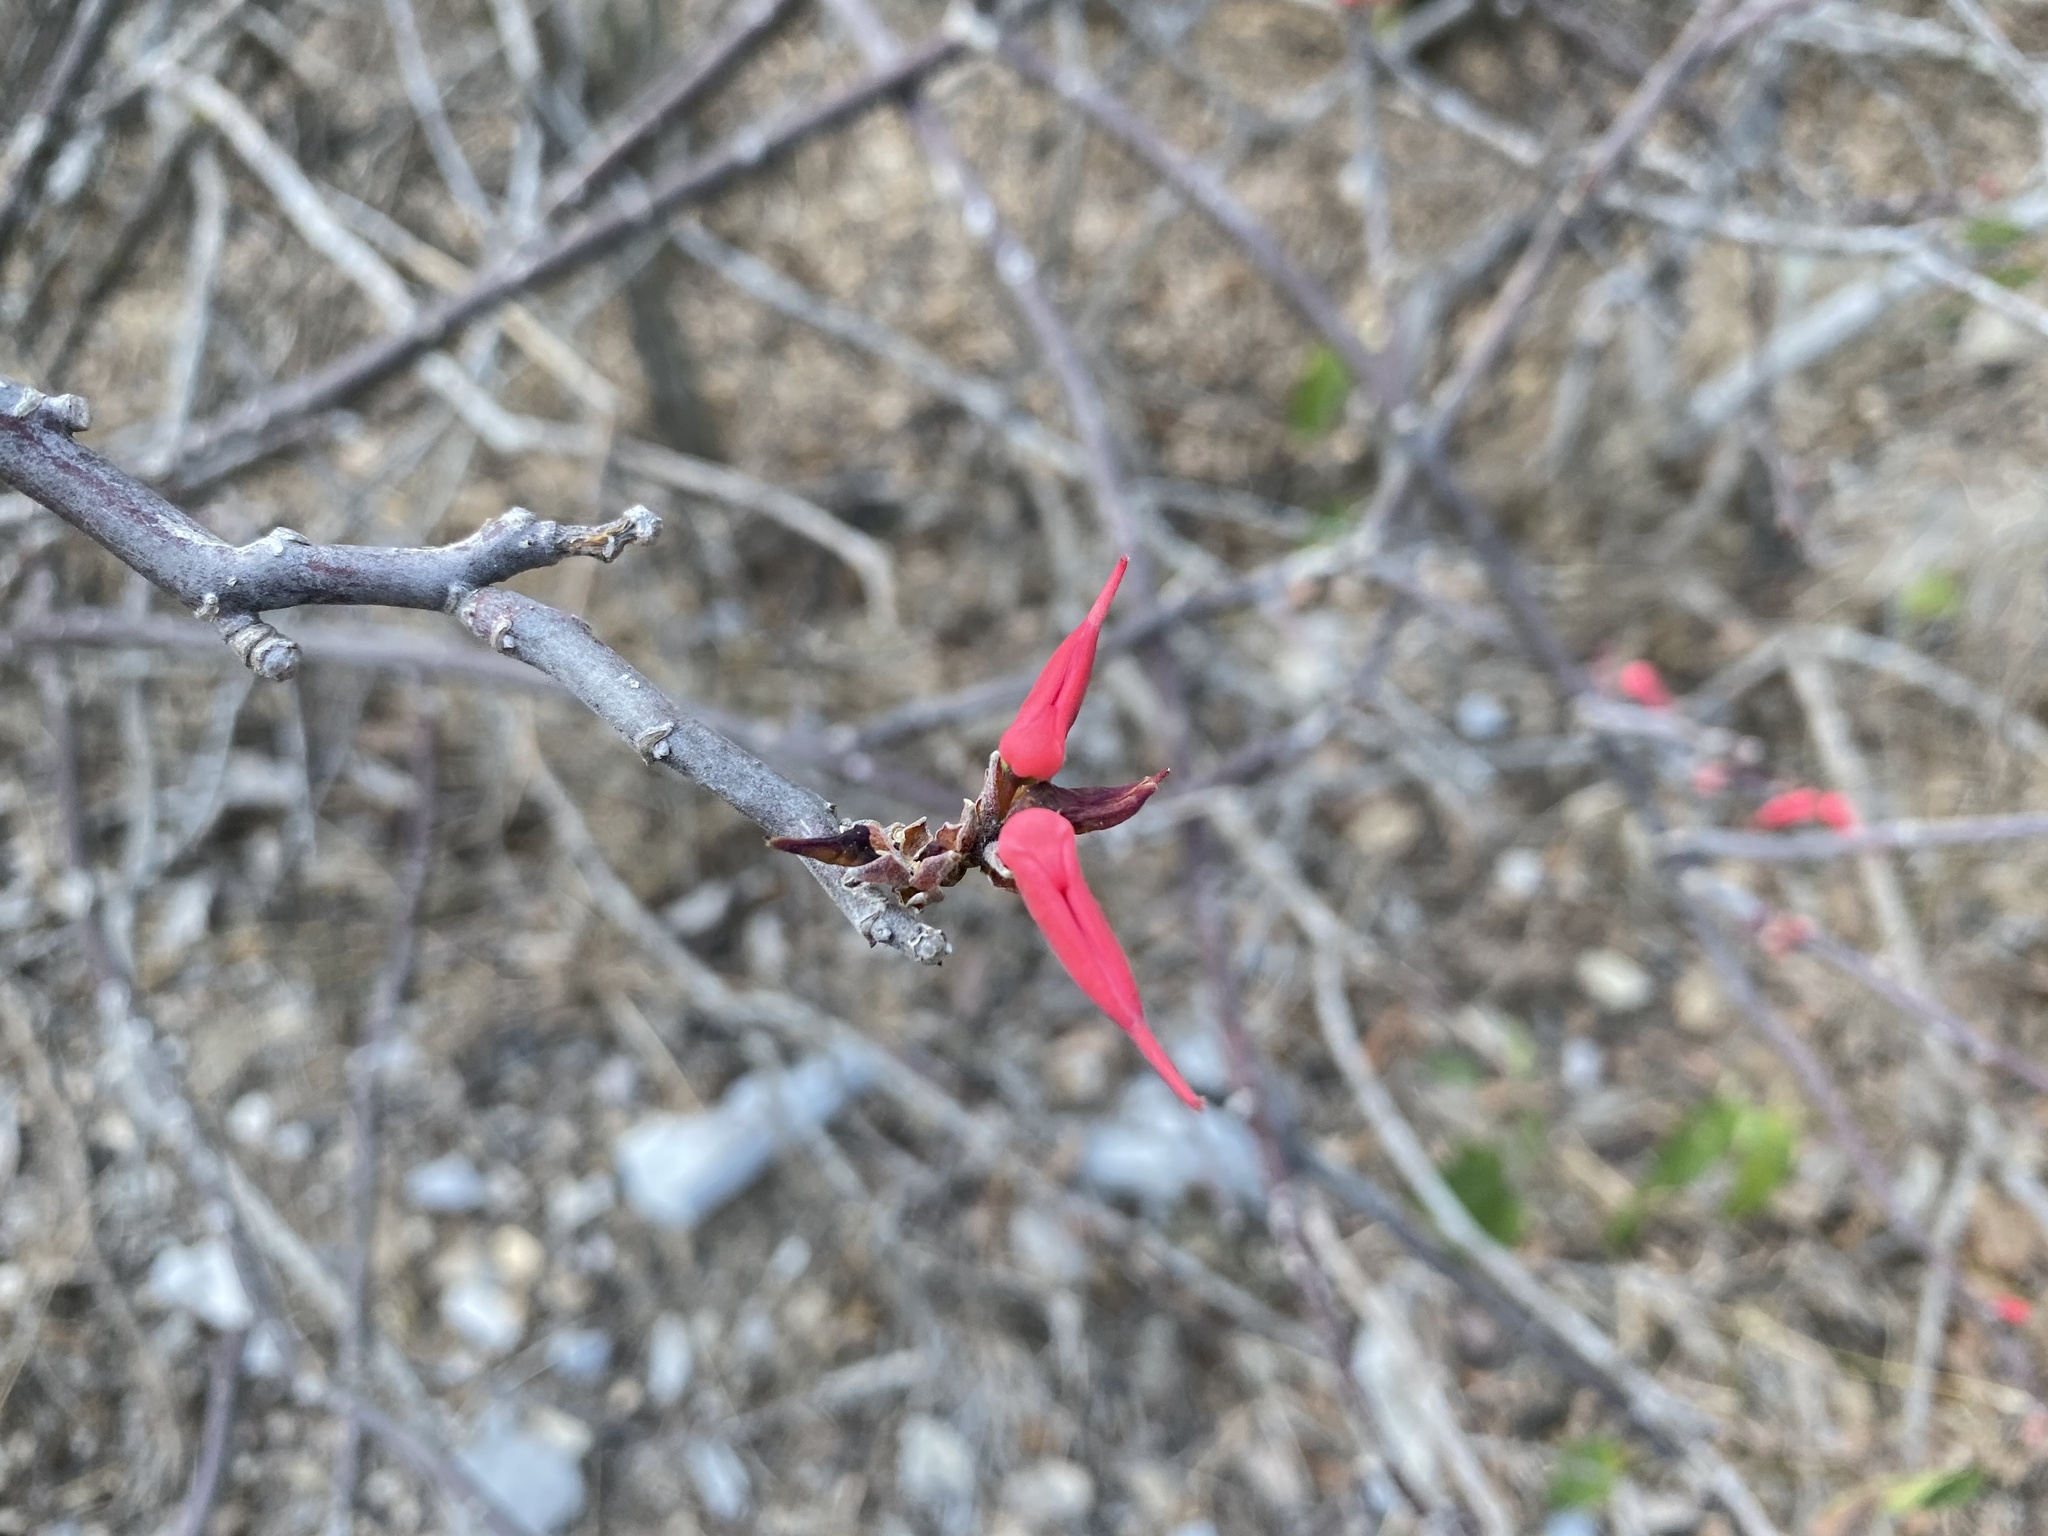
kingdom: Plantae
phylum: Tracheophyta
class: Magnoliopsida
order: Malpighiales
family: Euphorbiaceae
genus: Euphorbia
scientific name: Euphorbia tithymaloides
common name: Slipperplant
